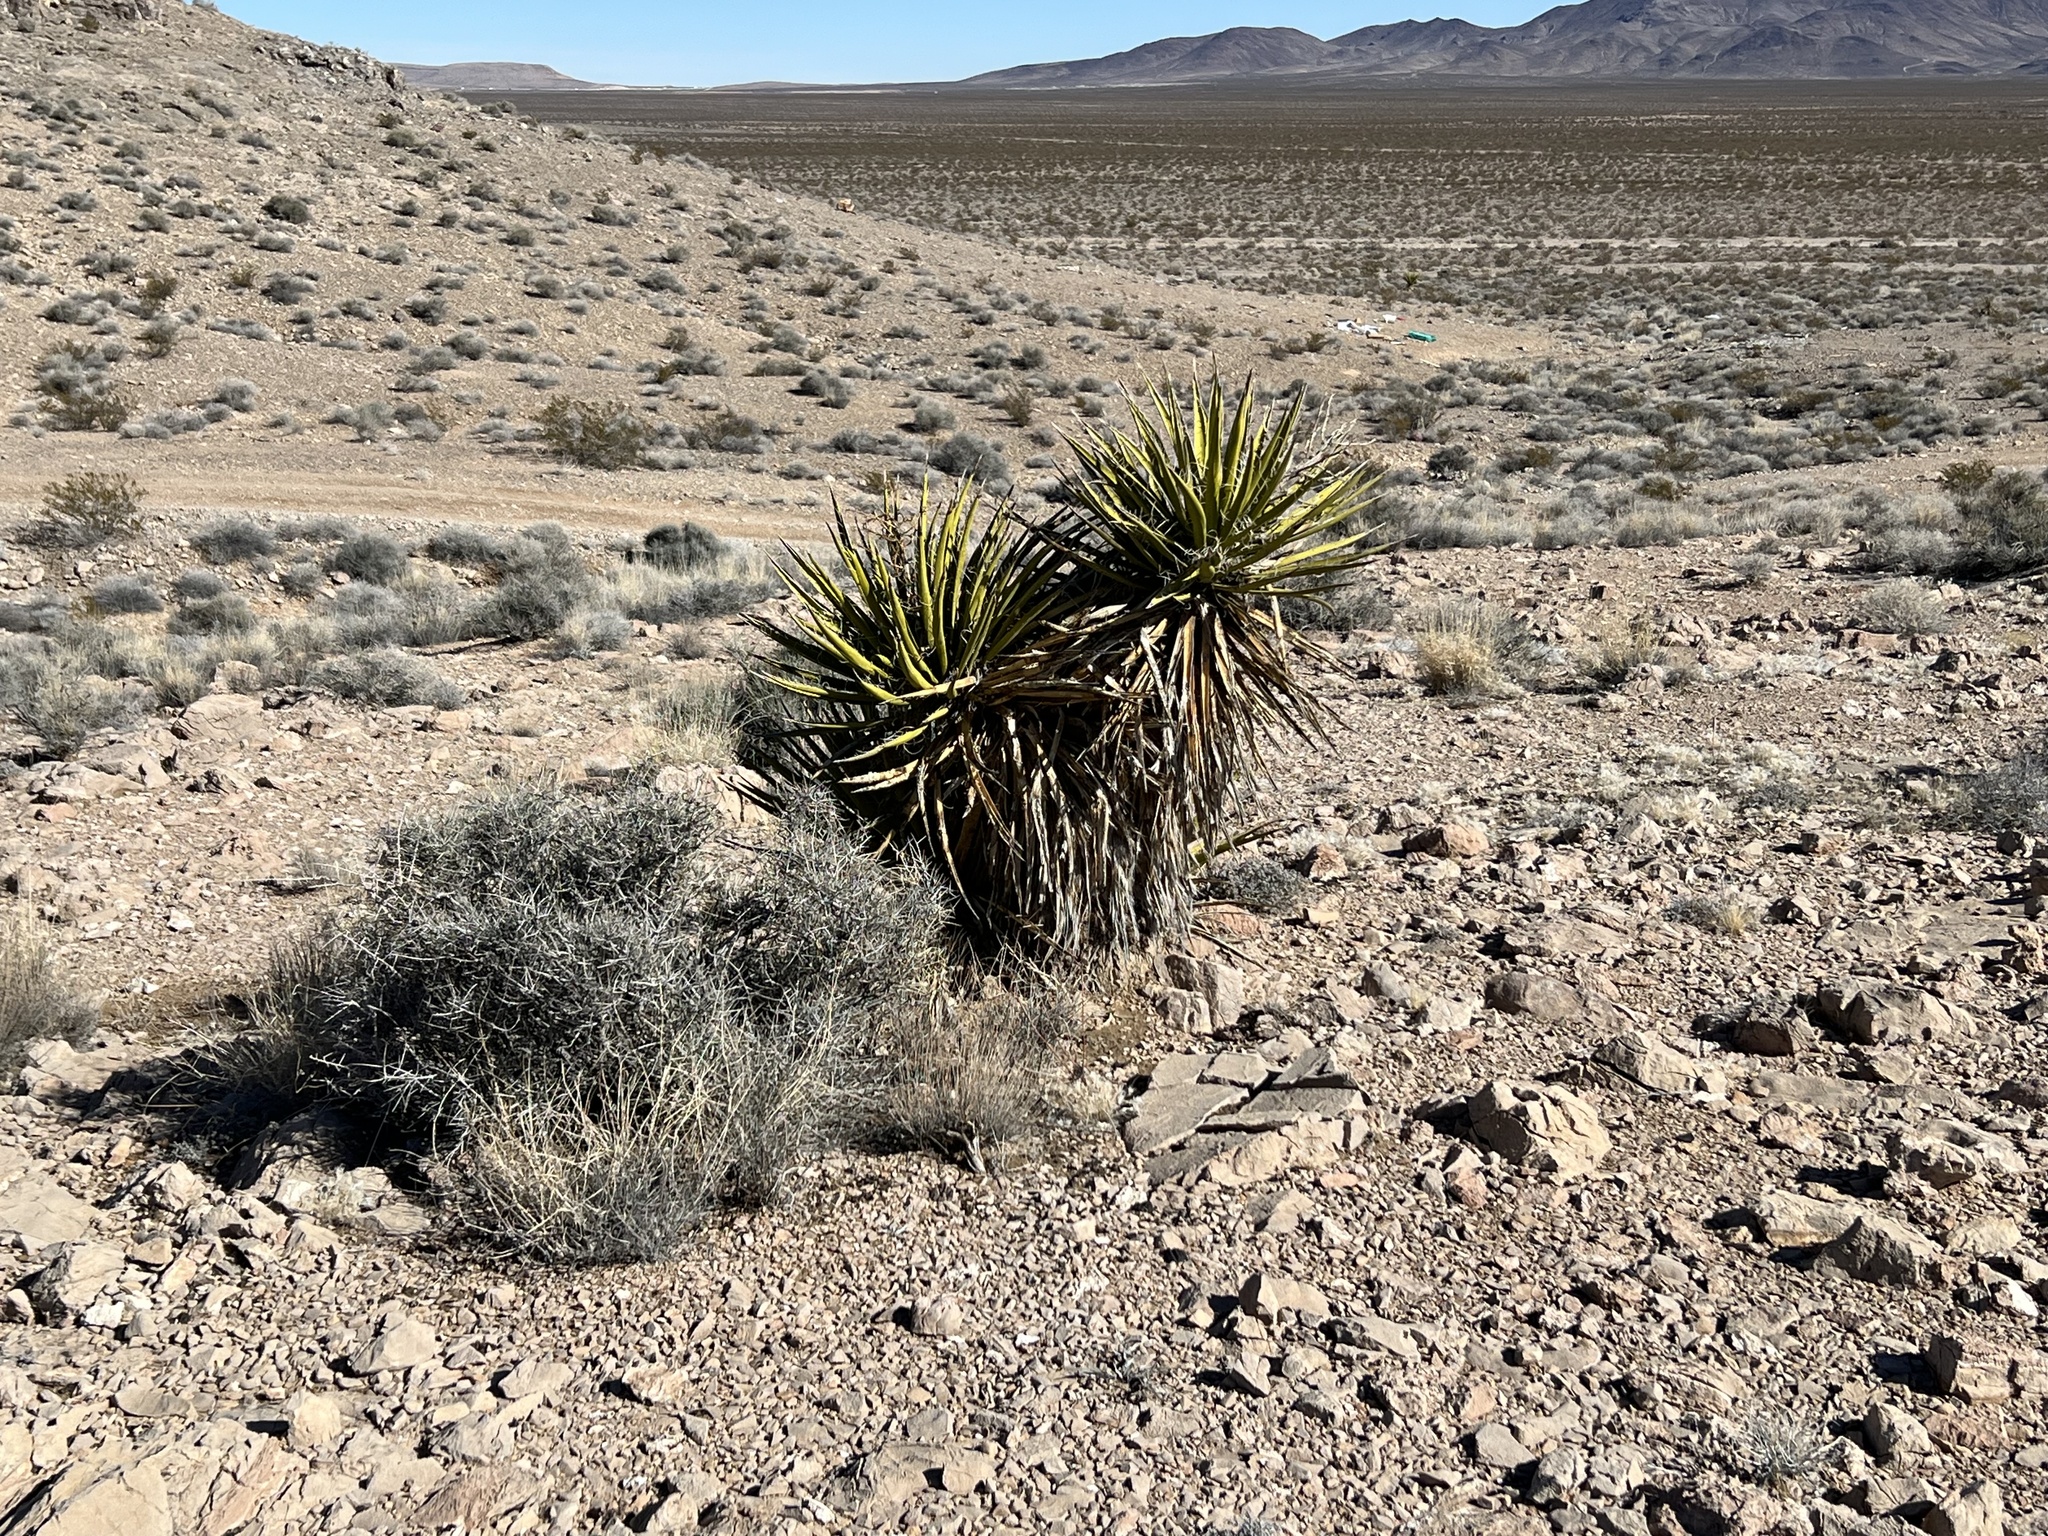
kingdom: Plantae
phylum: Tracheophyta
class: Liliopsida
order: Asparagales
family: Asparagaceae
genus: Yucca
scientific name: Yucca schidigera
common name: Mojave yucca
